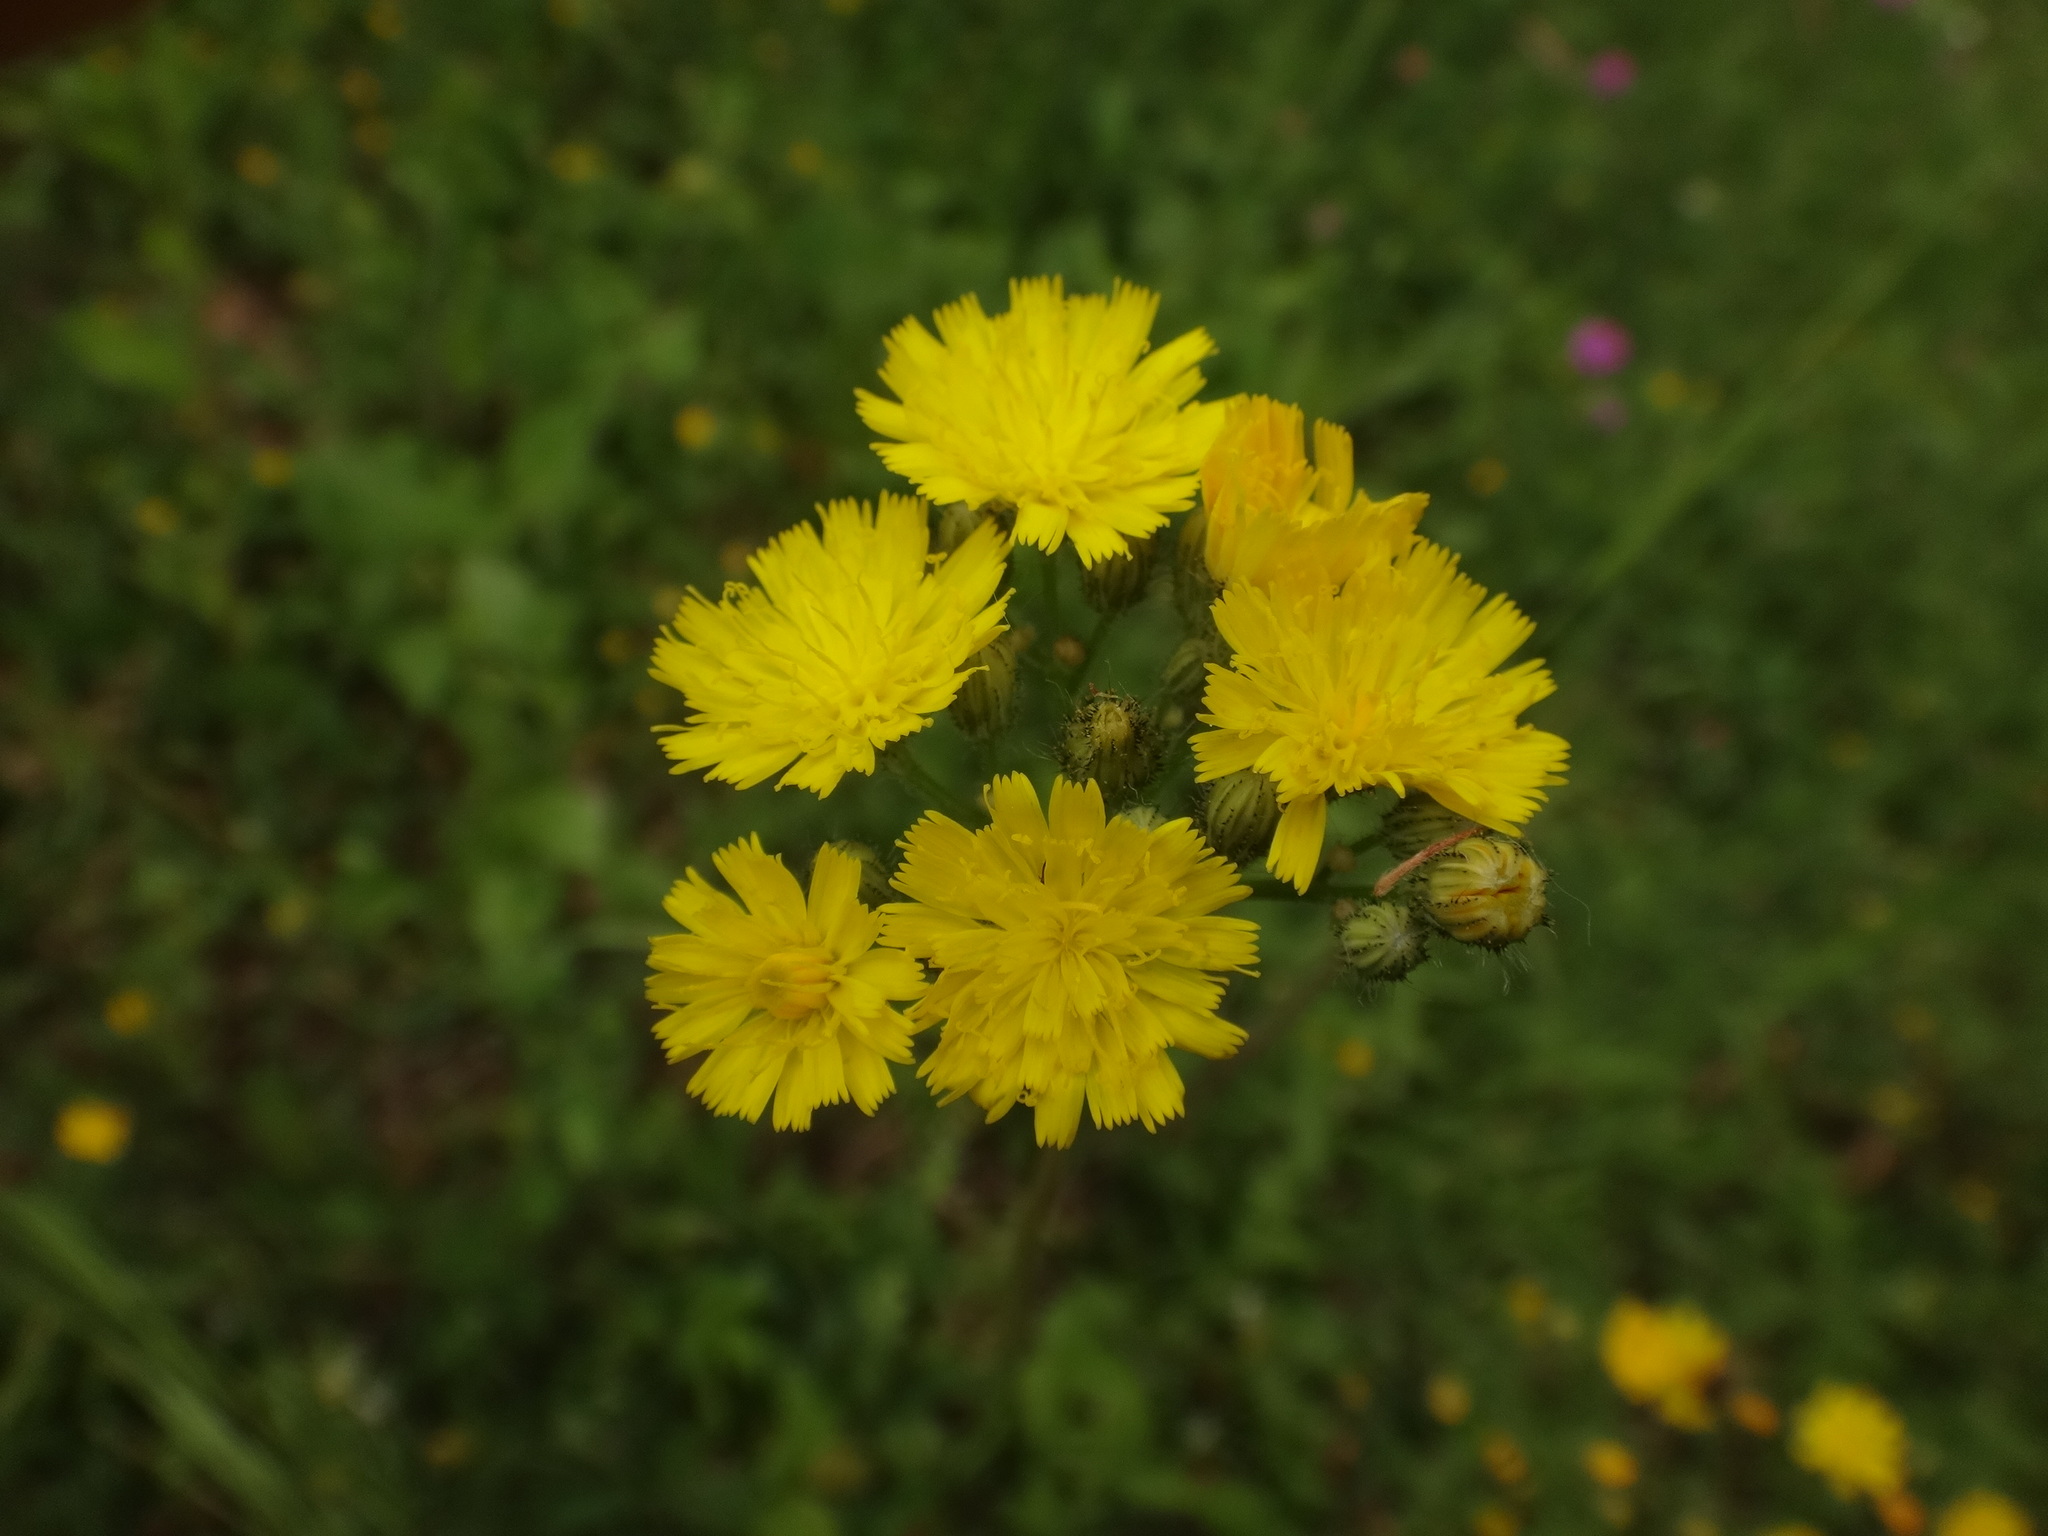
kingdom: Plantae
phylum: Tracheophyta
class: Magnoliopsida
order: Asterales
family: Asteraceae
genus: Pilosella
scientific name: Pilosella bauhini
